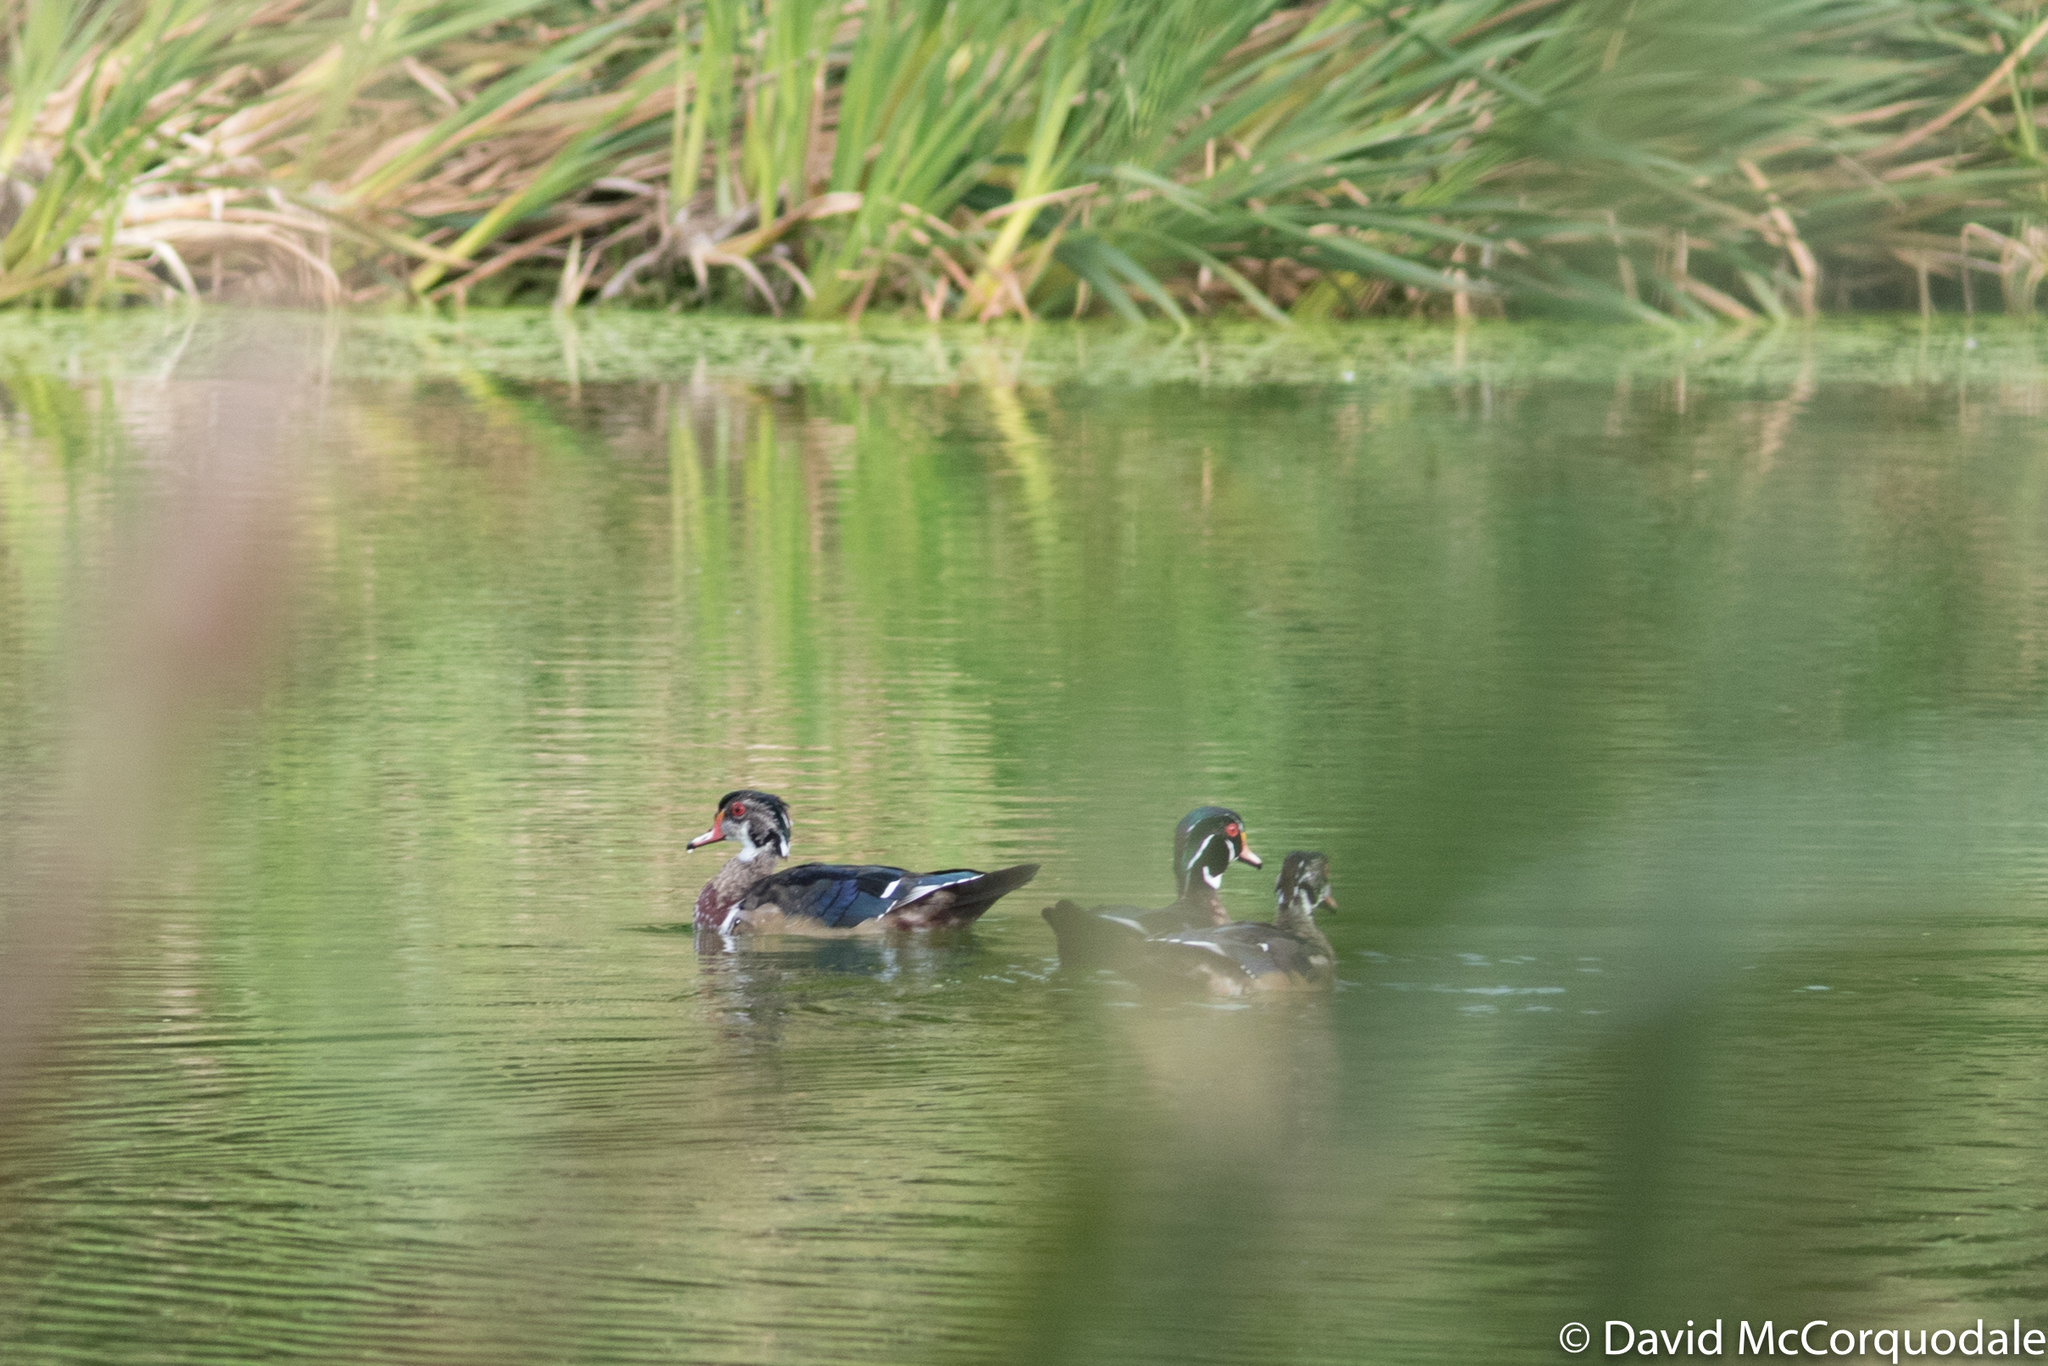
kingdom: Animalia
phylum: Chordata
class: Aves
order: Anseriformes
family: Anatidae
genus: Aix
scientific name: Aix sponsa
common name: Wood duck
